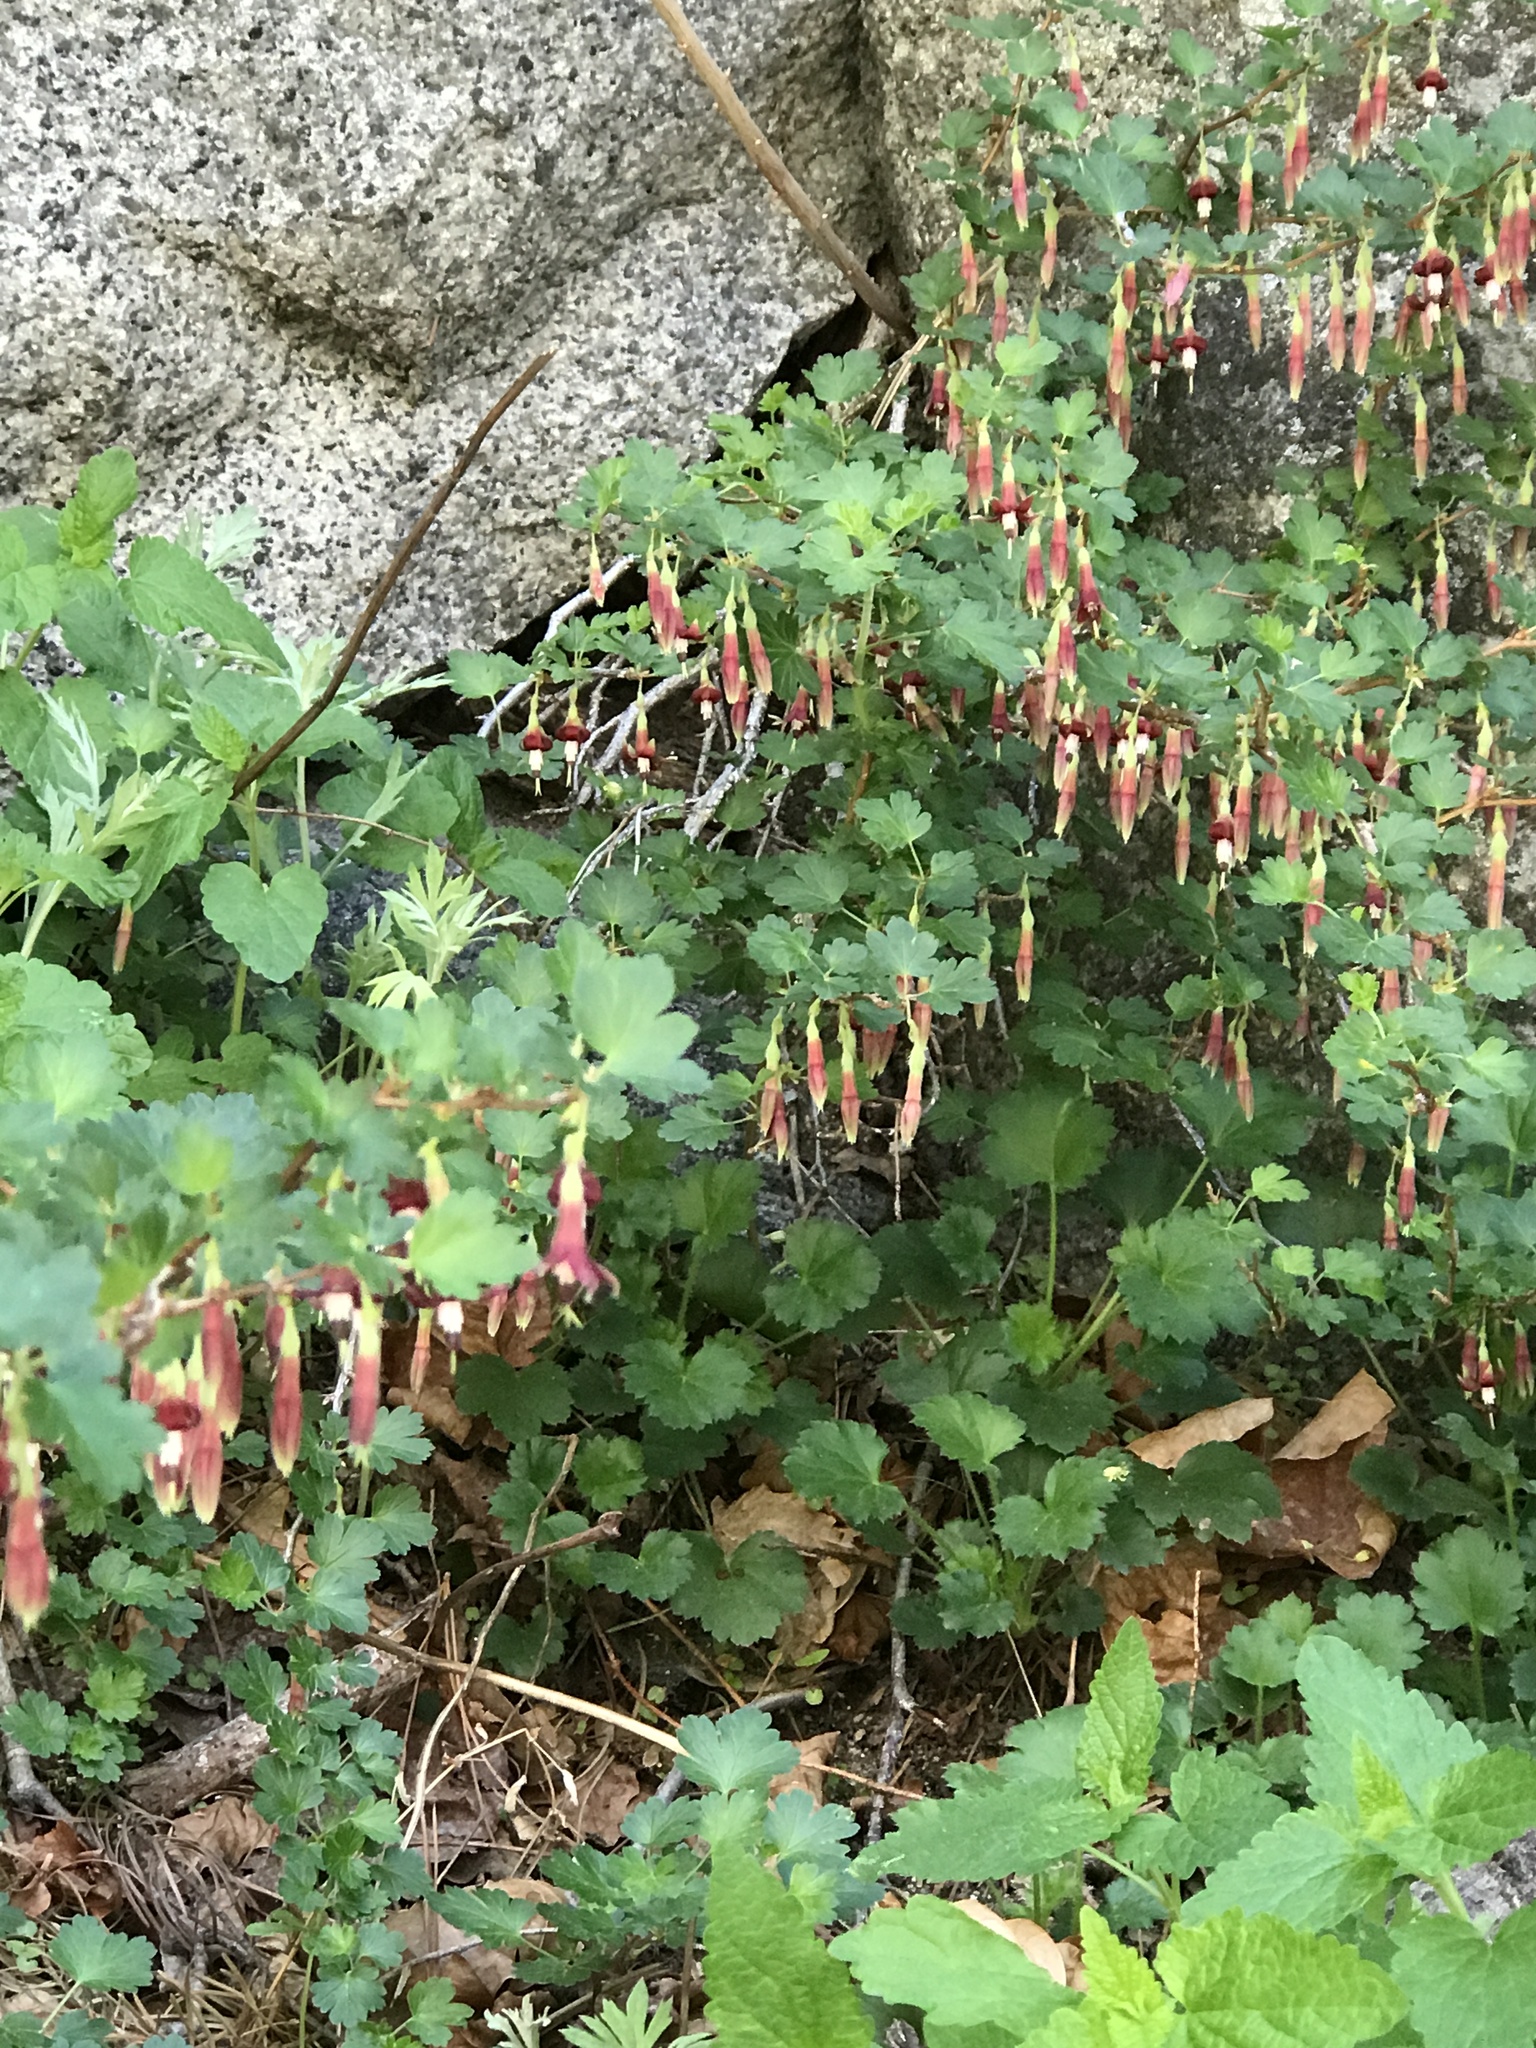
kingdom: Plantae
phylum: Tracheophyta
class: Magnoliopsida
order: Saxifragales
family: Grossulariaceae
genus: Ribes
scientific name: Ribes roezlii
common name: Sierra gooseberry
